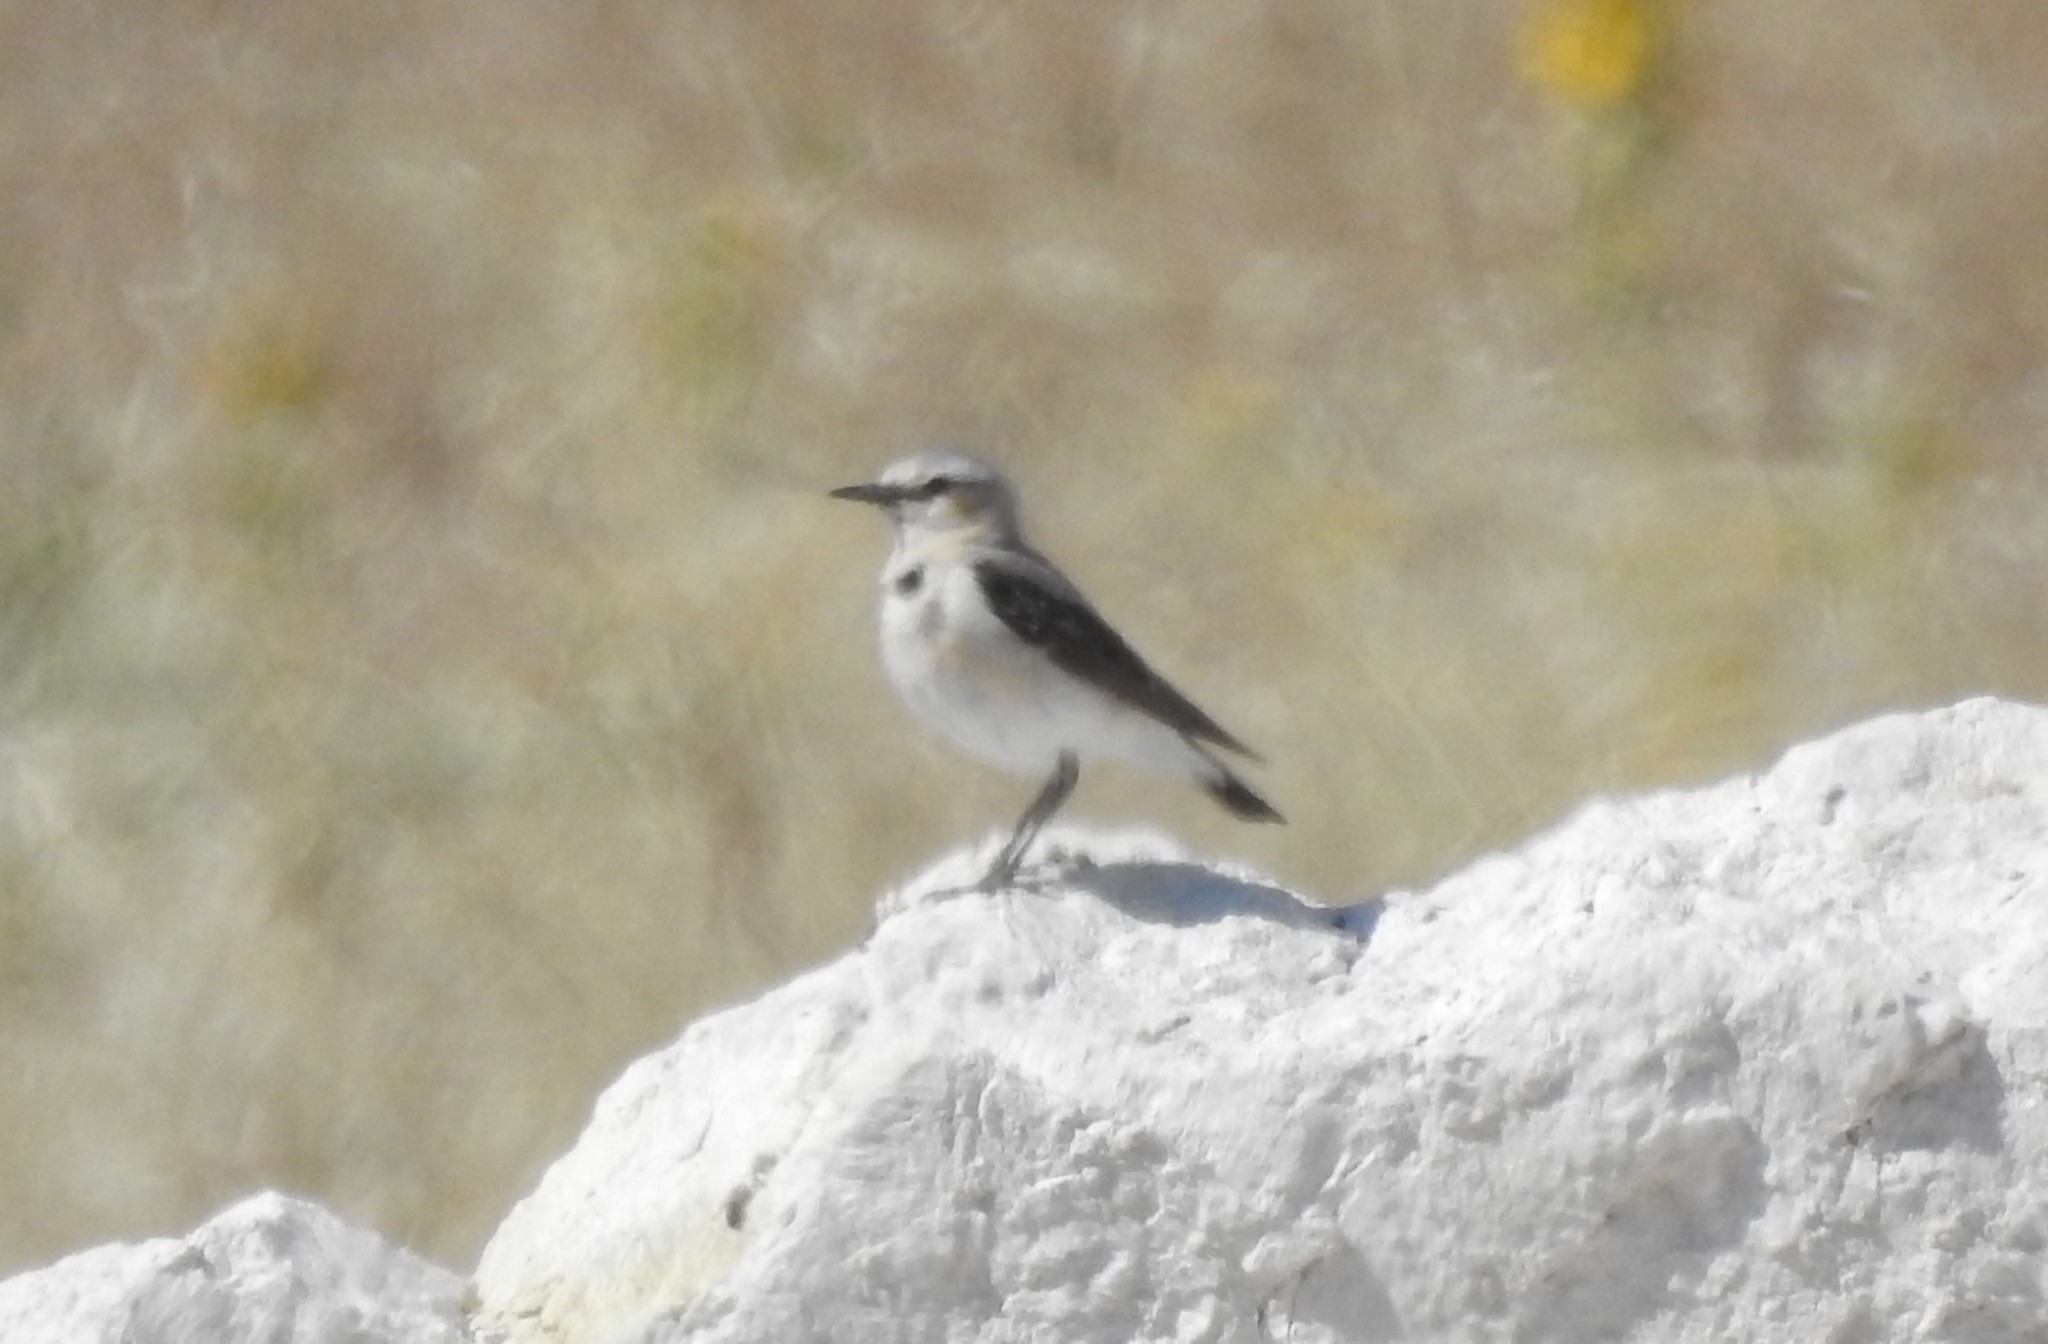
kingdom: Animalia
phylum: Chordata
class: Aves
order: Passeriformes
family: Muscicapidae
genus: Oenanthe
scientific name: Oenanthe oenanthe
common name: Northern wheatear
